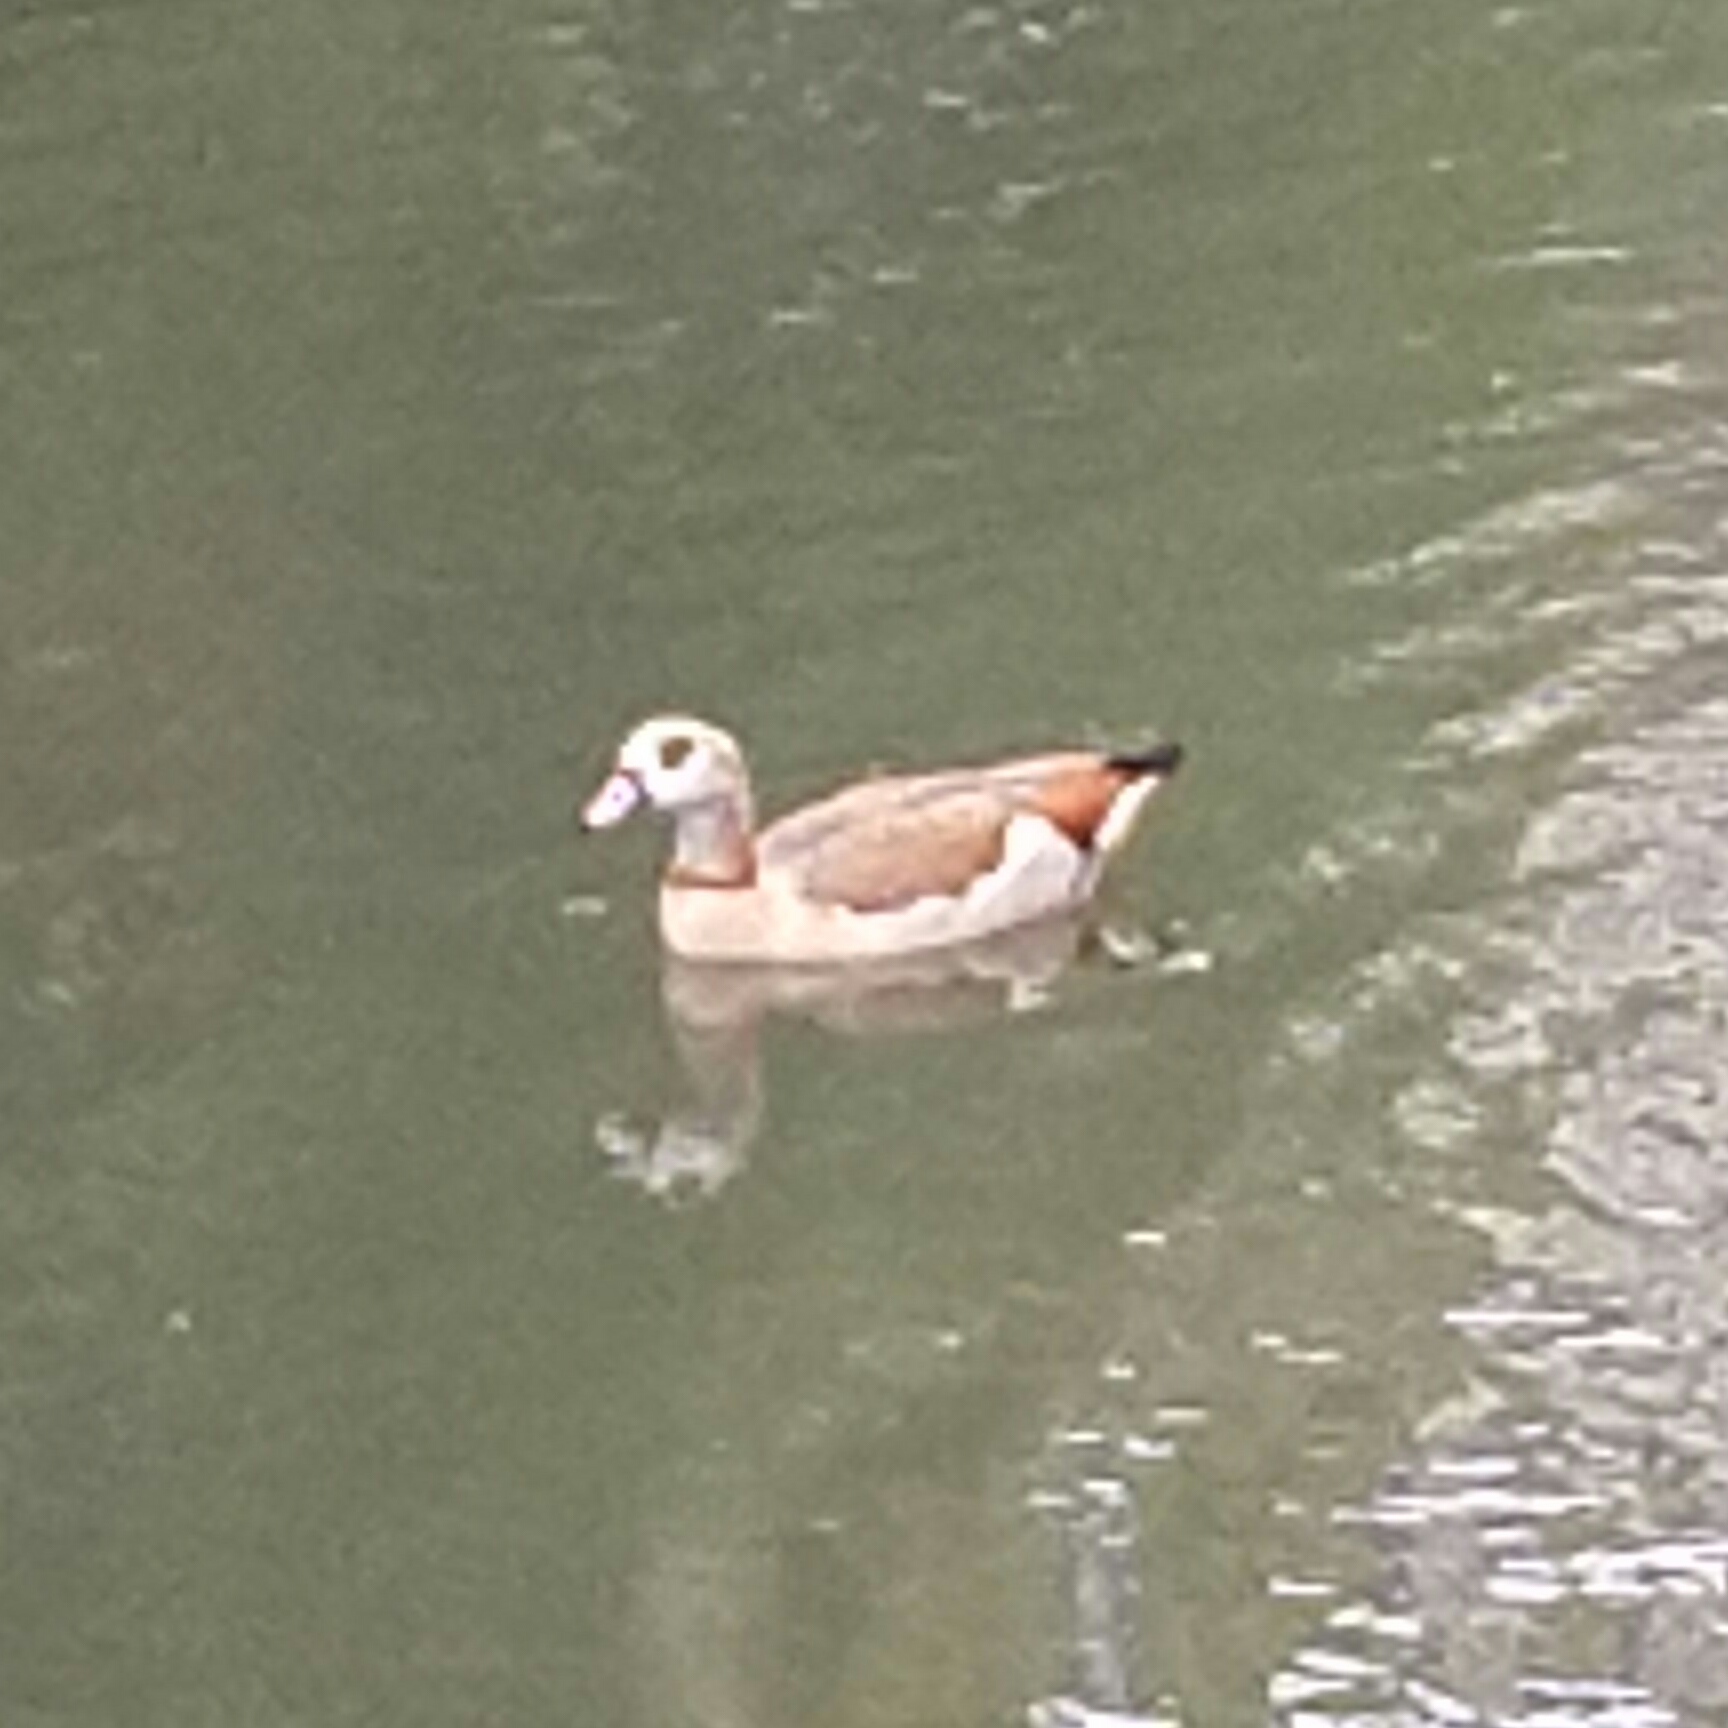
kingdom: Animalia
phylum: Chordata
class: Aves
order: Anseriformes
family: Anatidae
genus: Alopochen
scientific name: Alopochen aegyptiaca
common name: Egyptian goose
